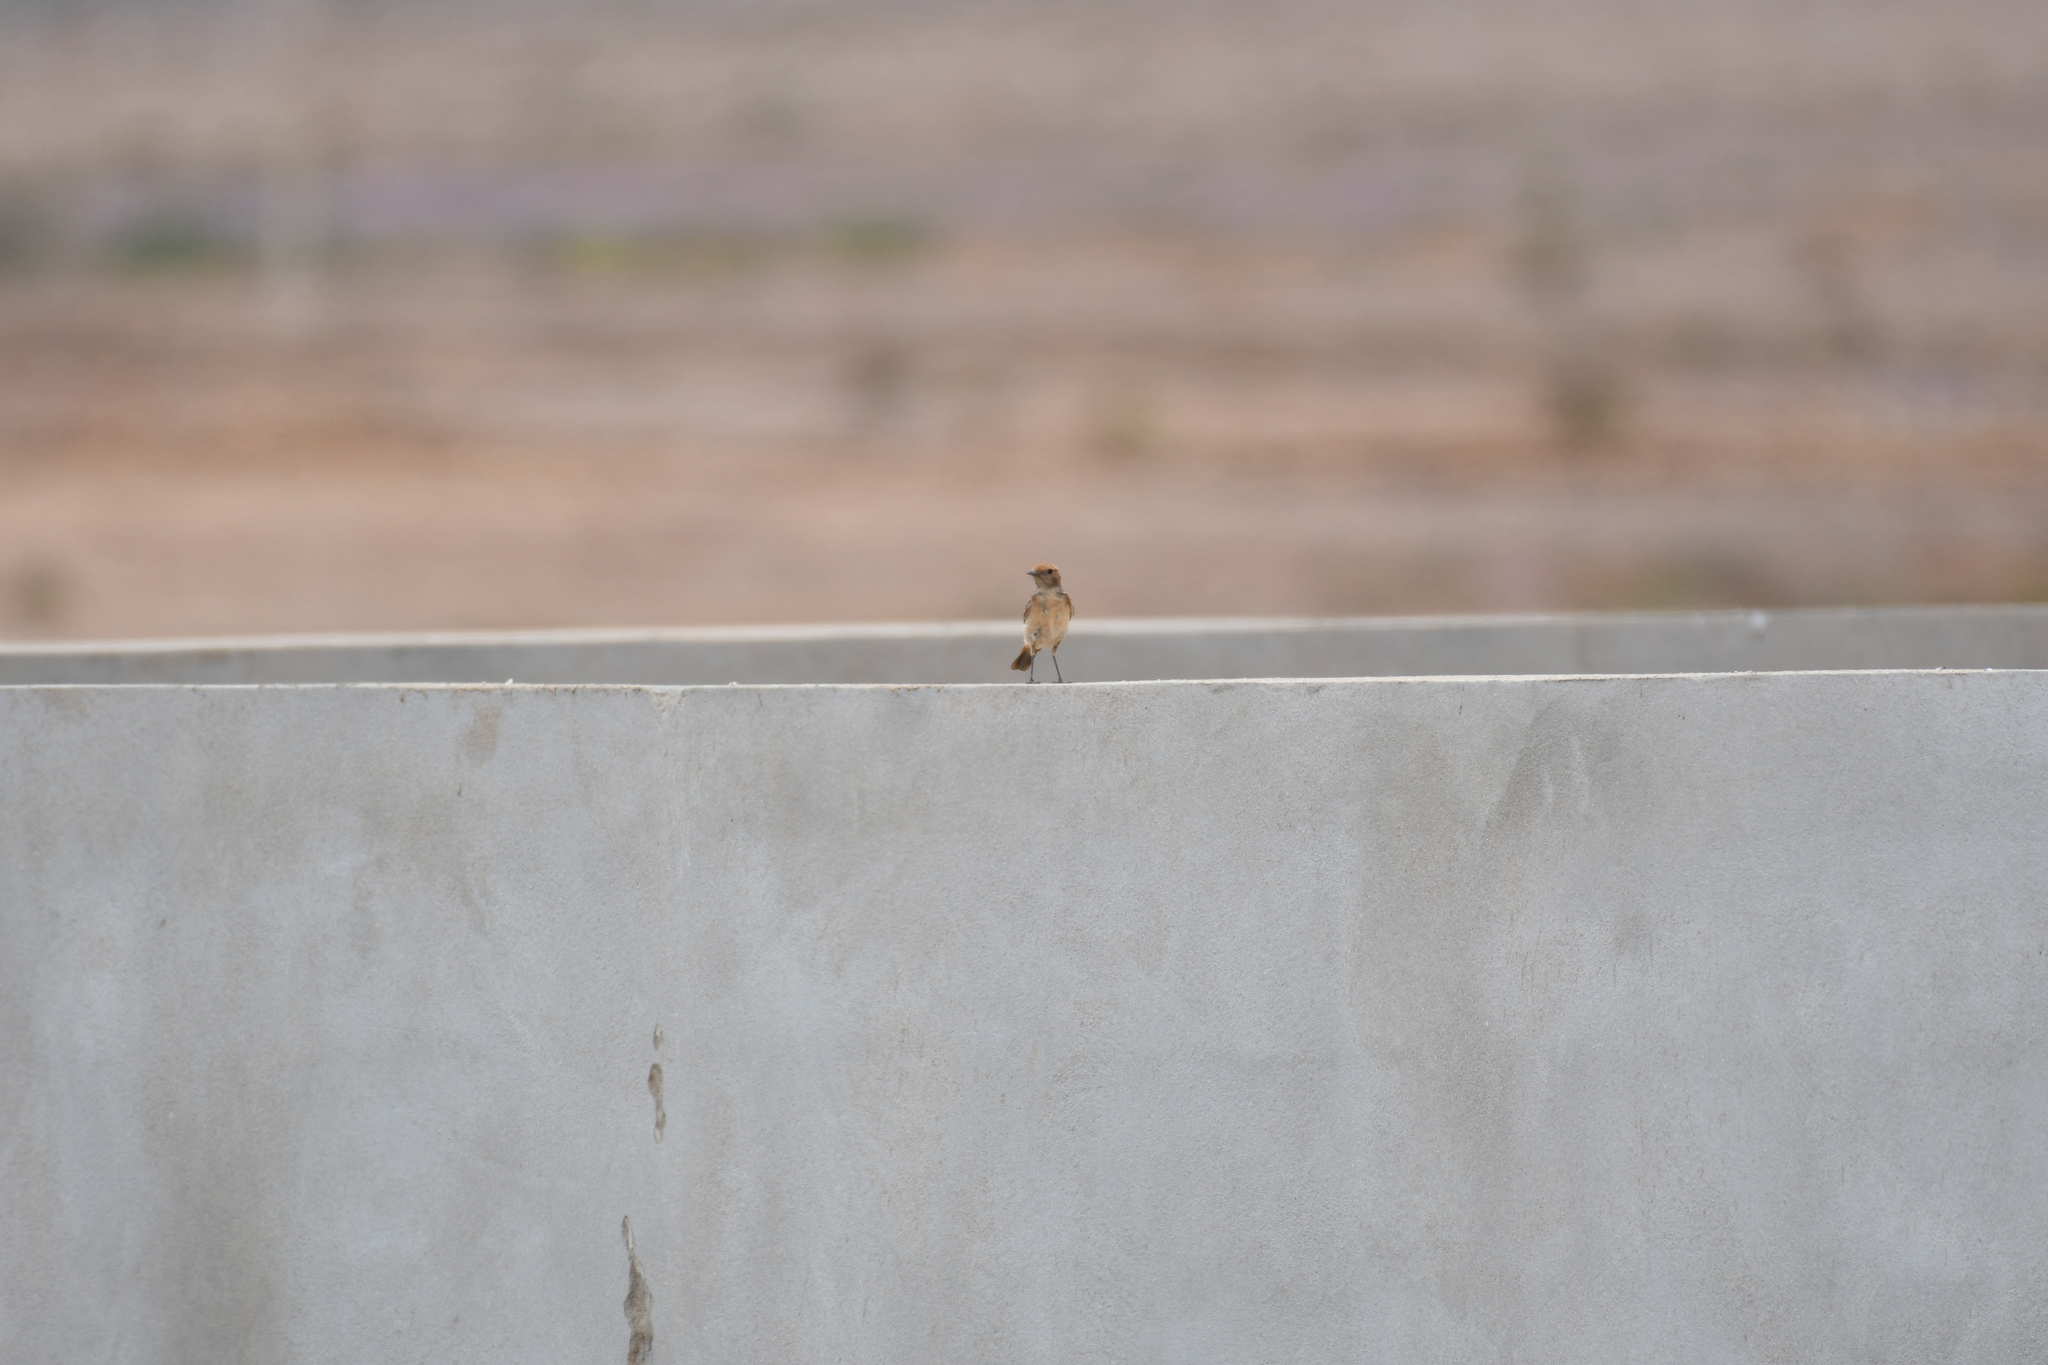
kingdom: Animalia
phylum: Chordata
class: Aves
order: Passeriformes
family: Muscicapidae
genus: Oenanthe
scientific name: Oenanthe moesta
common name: Red-rumped wheatear
